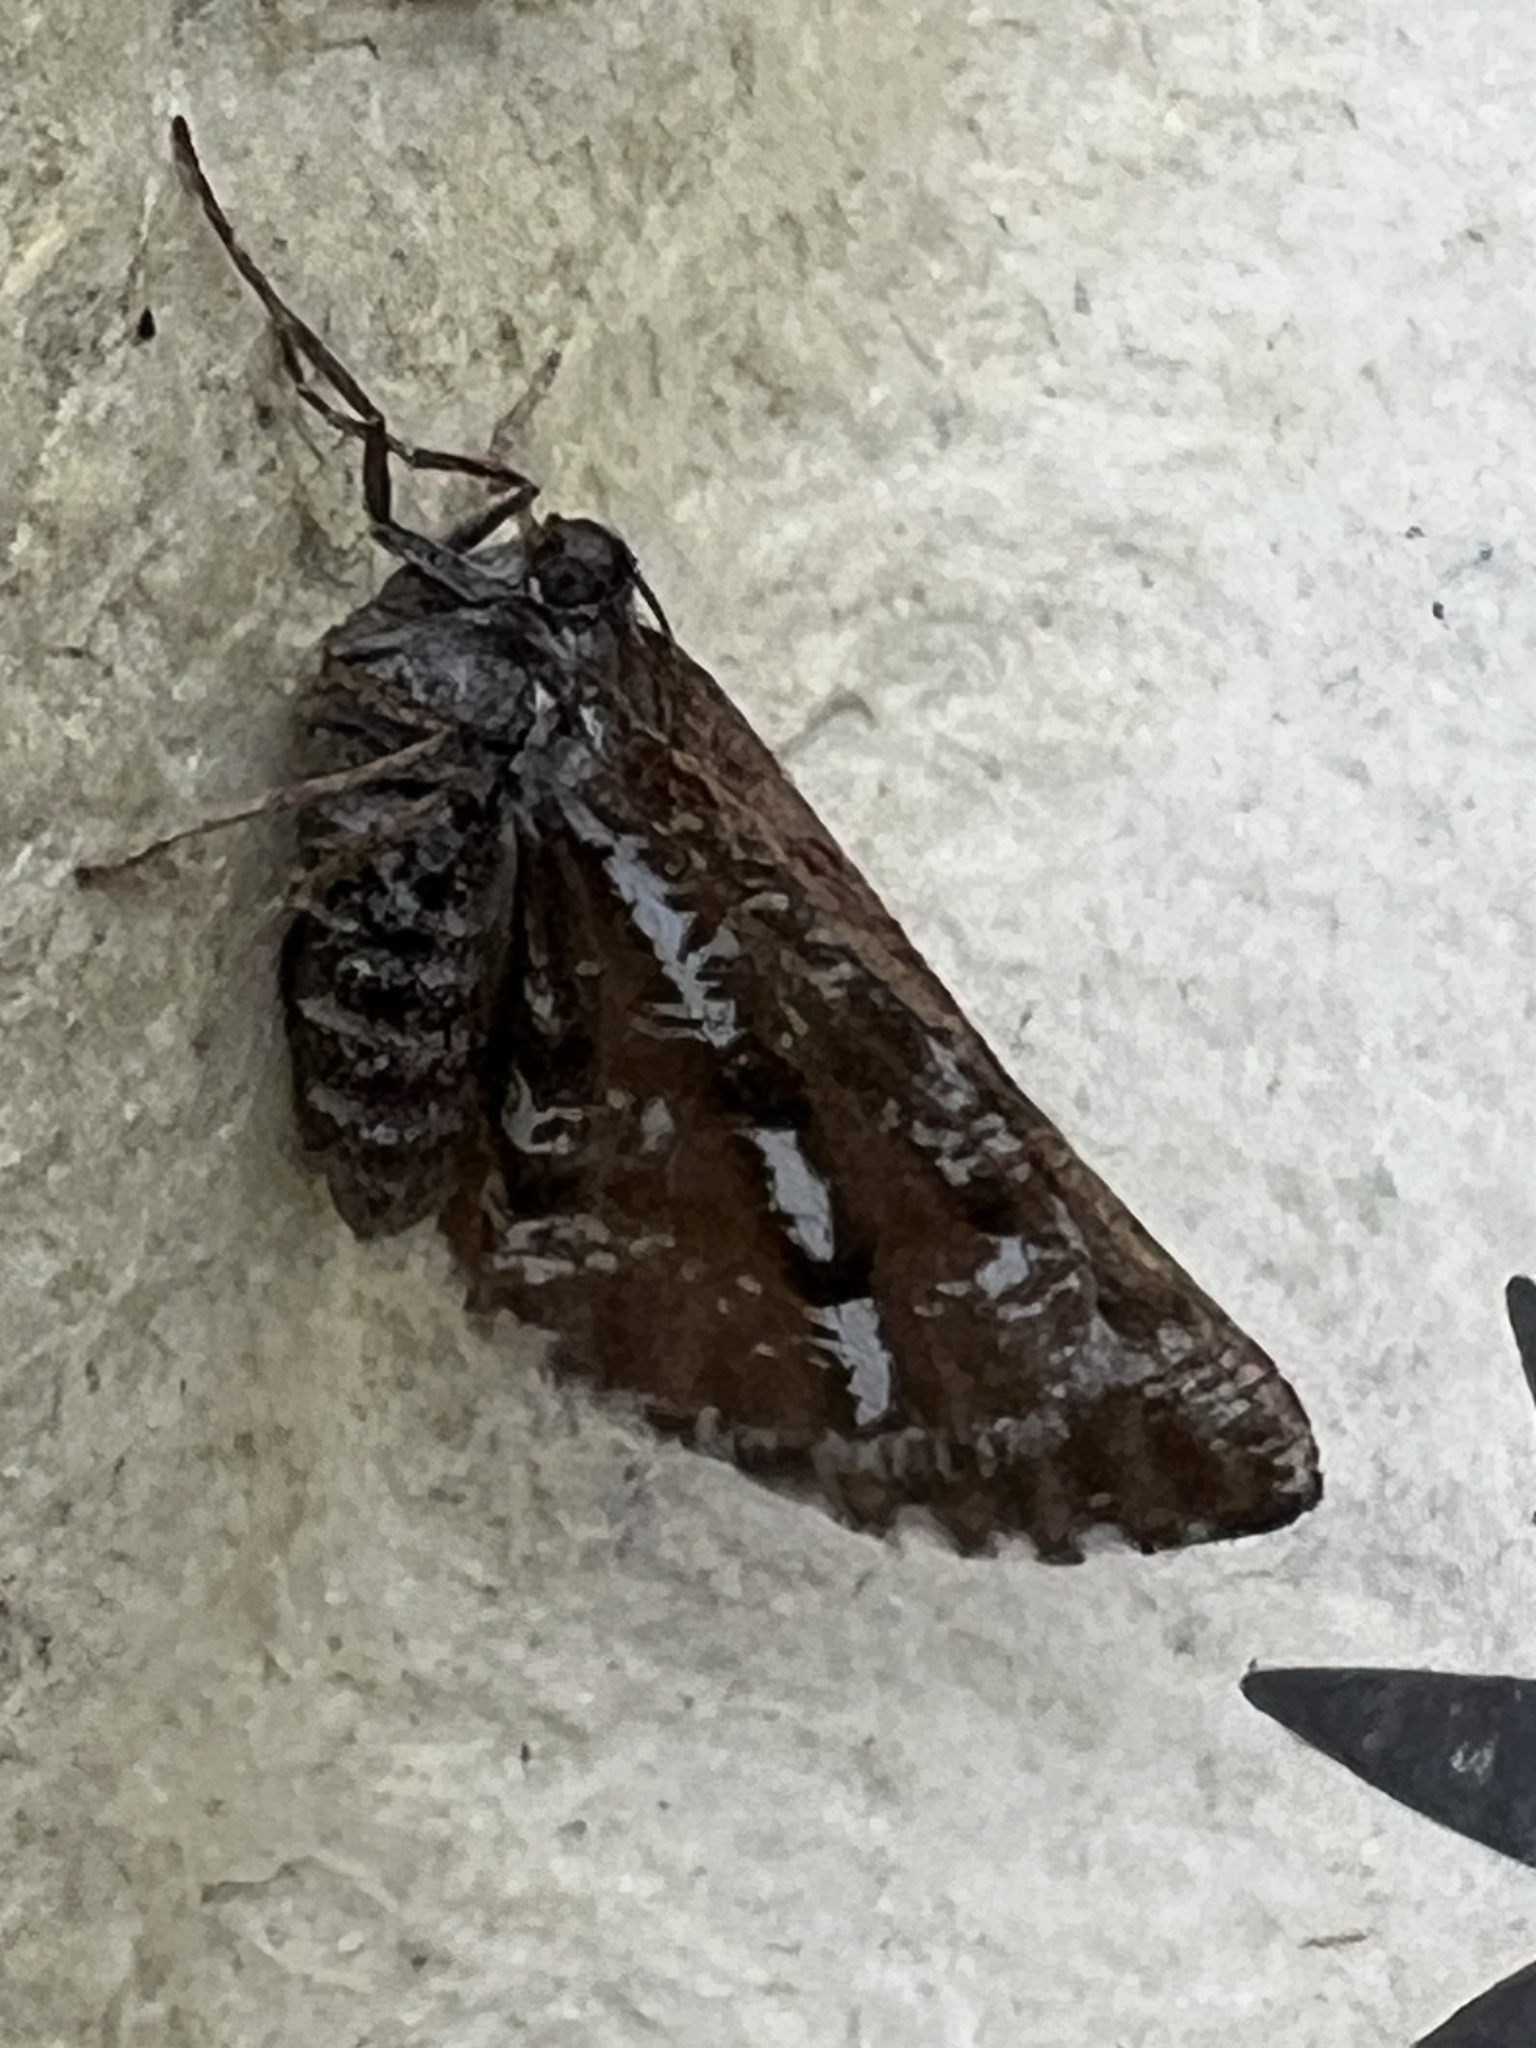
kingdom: Animalia
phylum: Arthropoda
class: Insecta
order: Lepidoptera
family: Geometridae
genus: Bupalus
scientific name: Bupalus piniaria
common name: Bordered white
